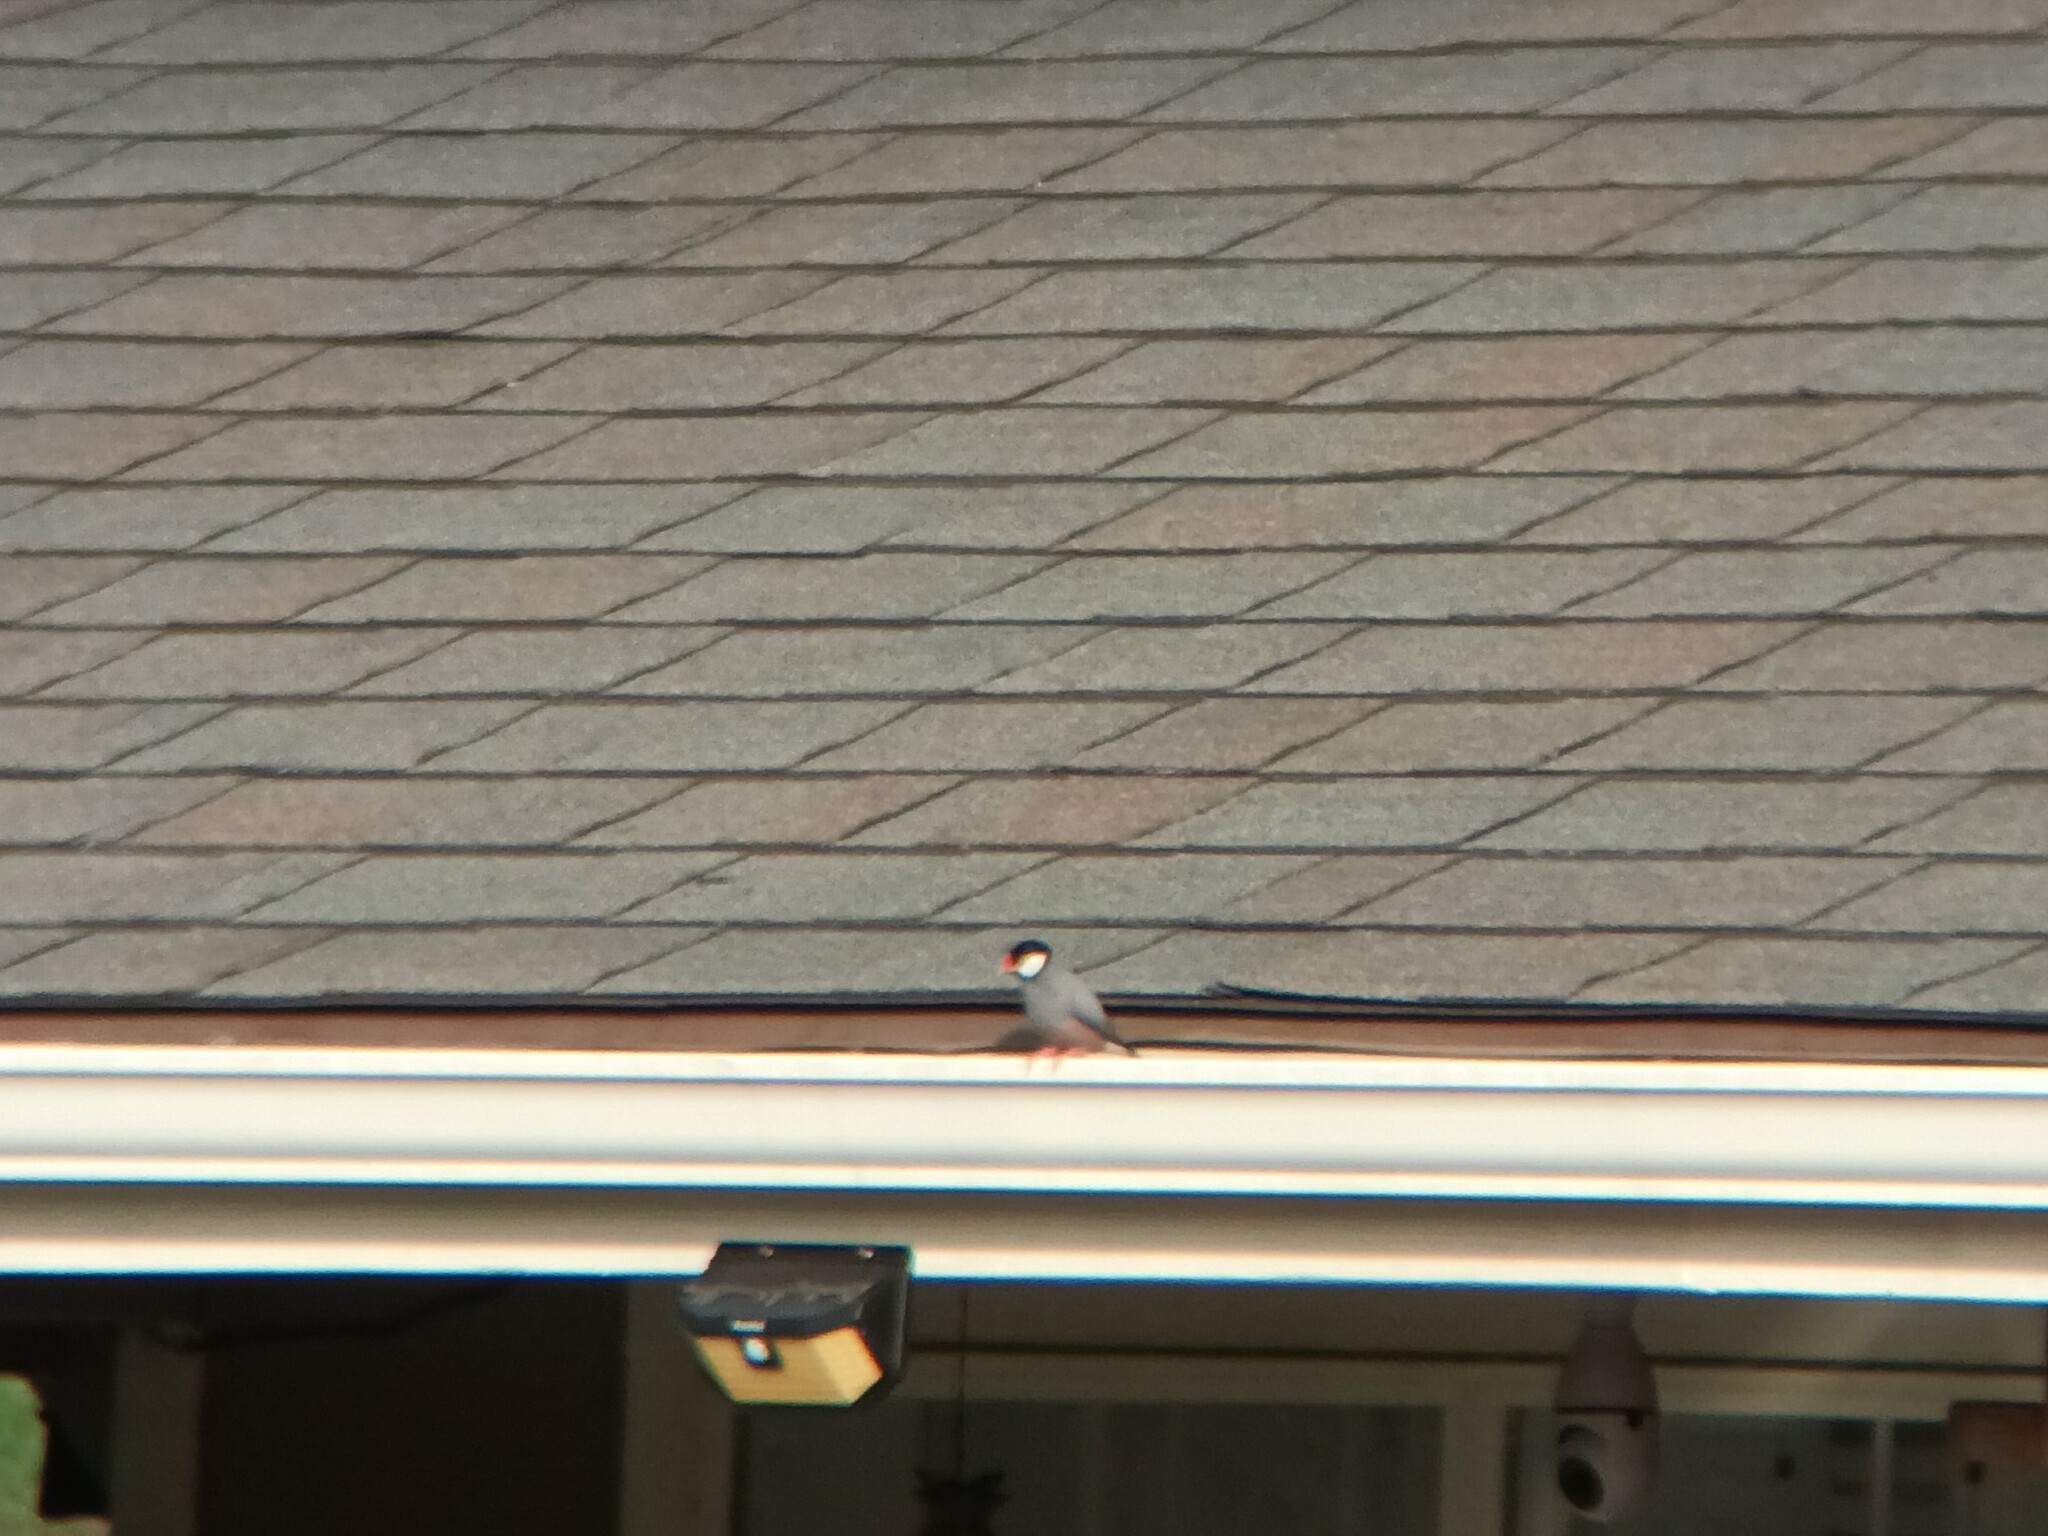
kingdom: Animalia
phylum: Chordata
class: Aves
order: Passeriformes
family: Estrildidae
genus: Lonchura
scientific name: Lonchura oryzivora
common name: Java sparrow
